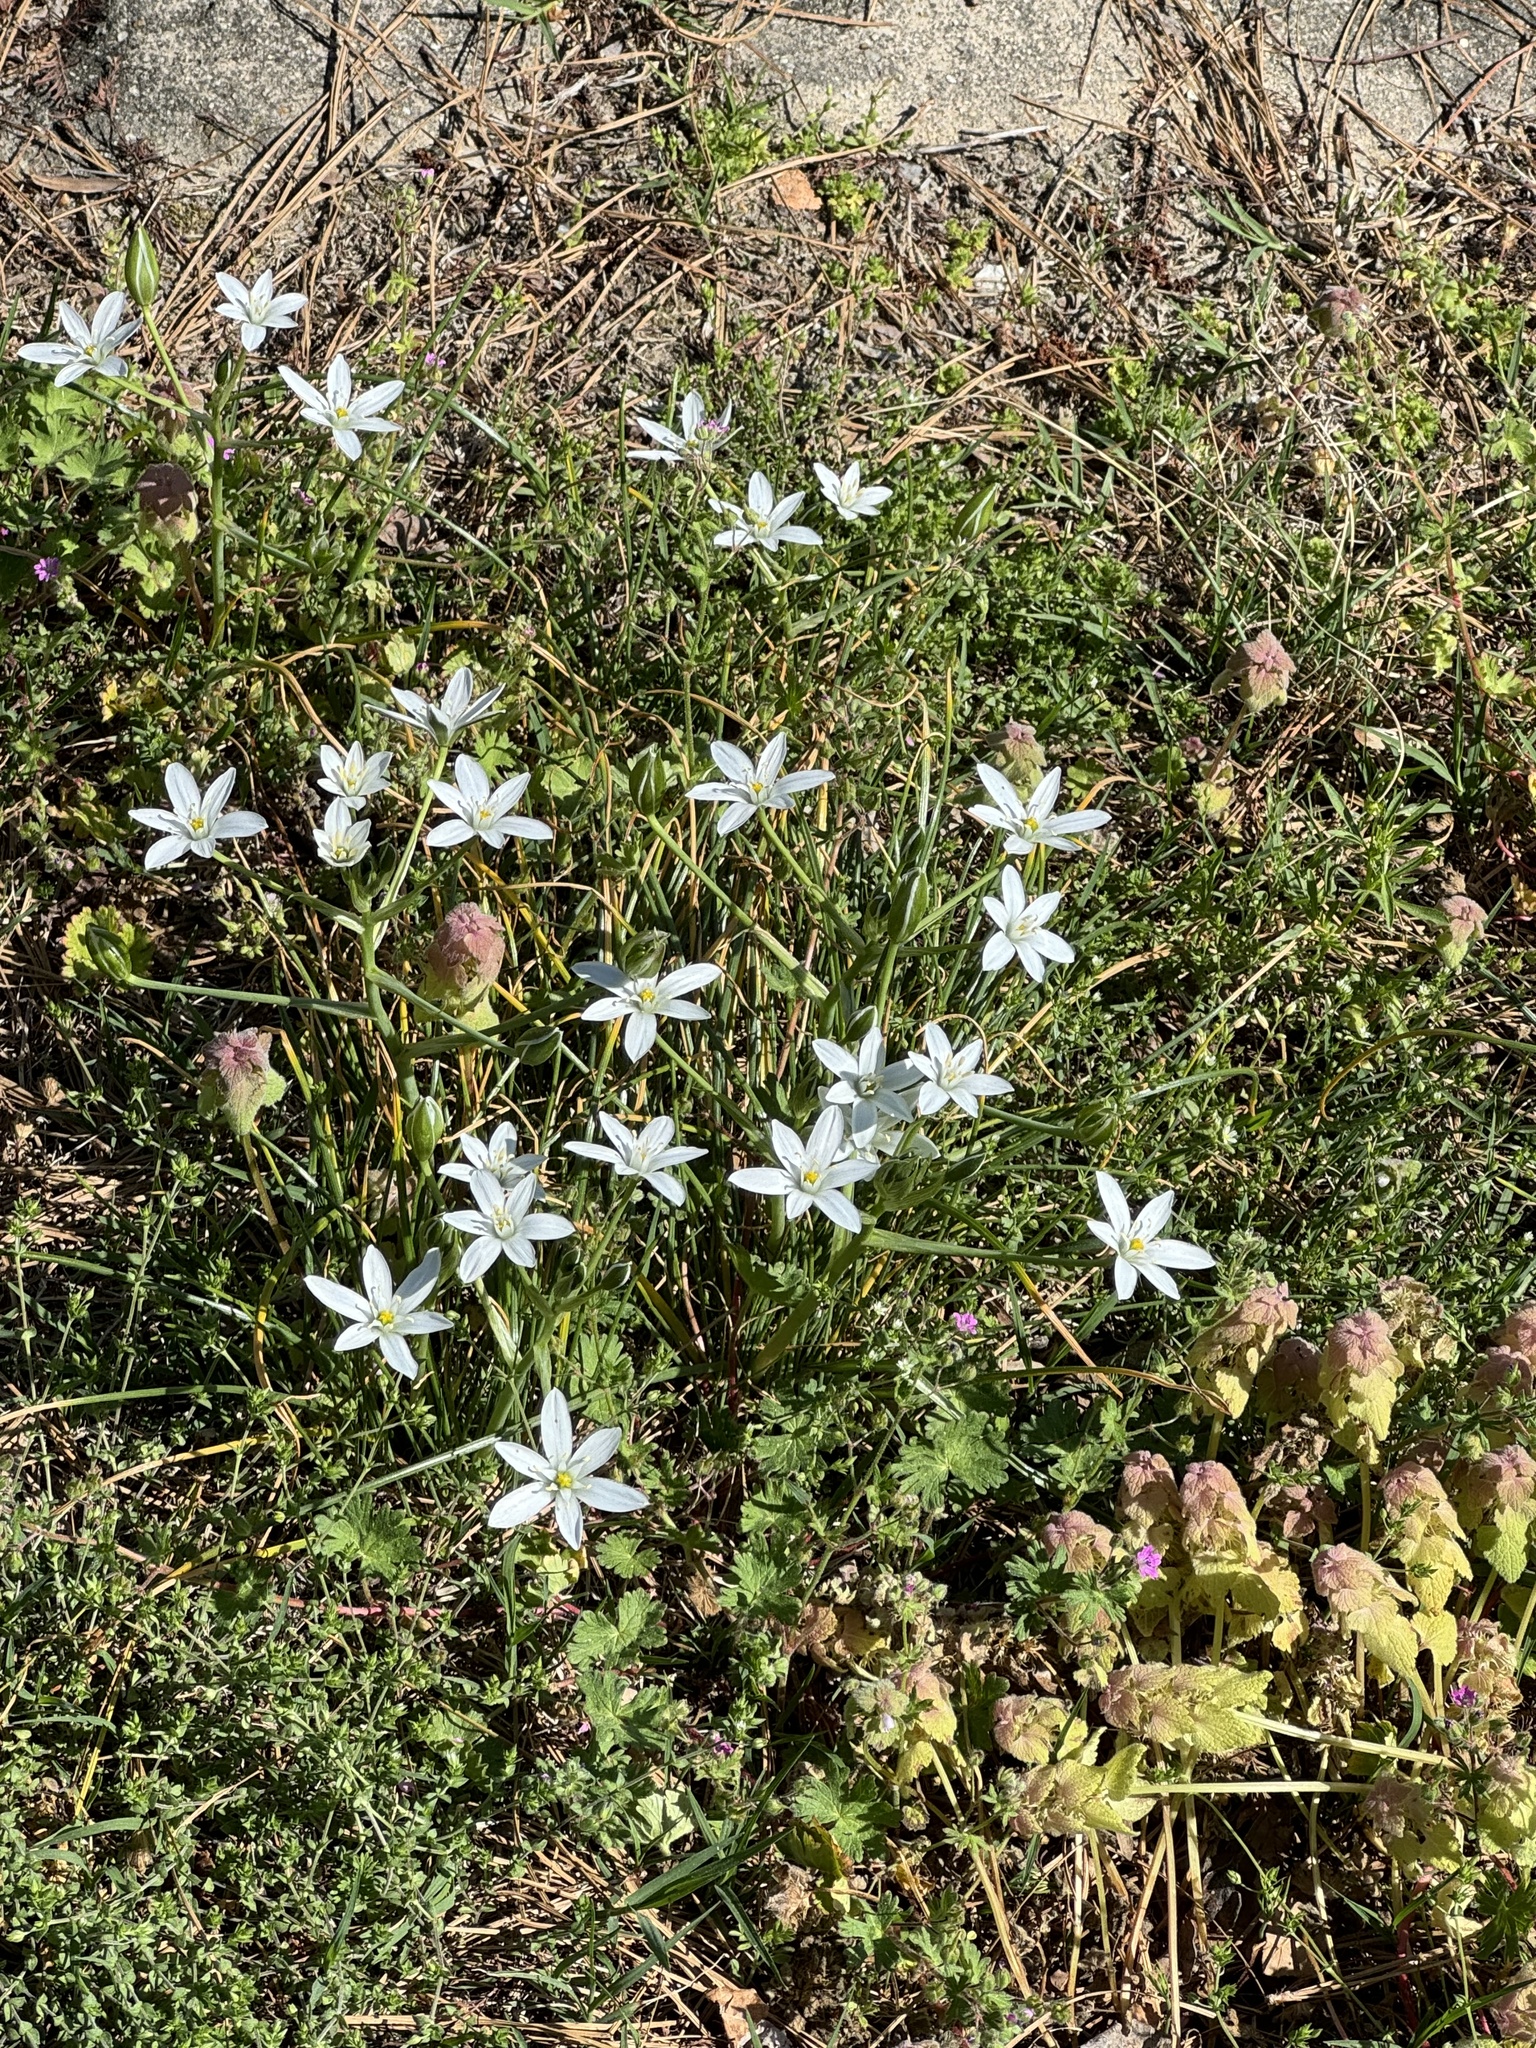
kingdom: Plantae
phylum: Tracheophyta
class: Liliopsida
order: Asparagales
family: Asparagaceae
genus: Ornithogalum
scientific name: Ornithogalum umbellatum
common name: Garden star-of-bethlehem
